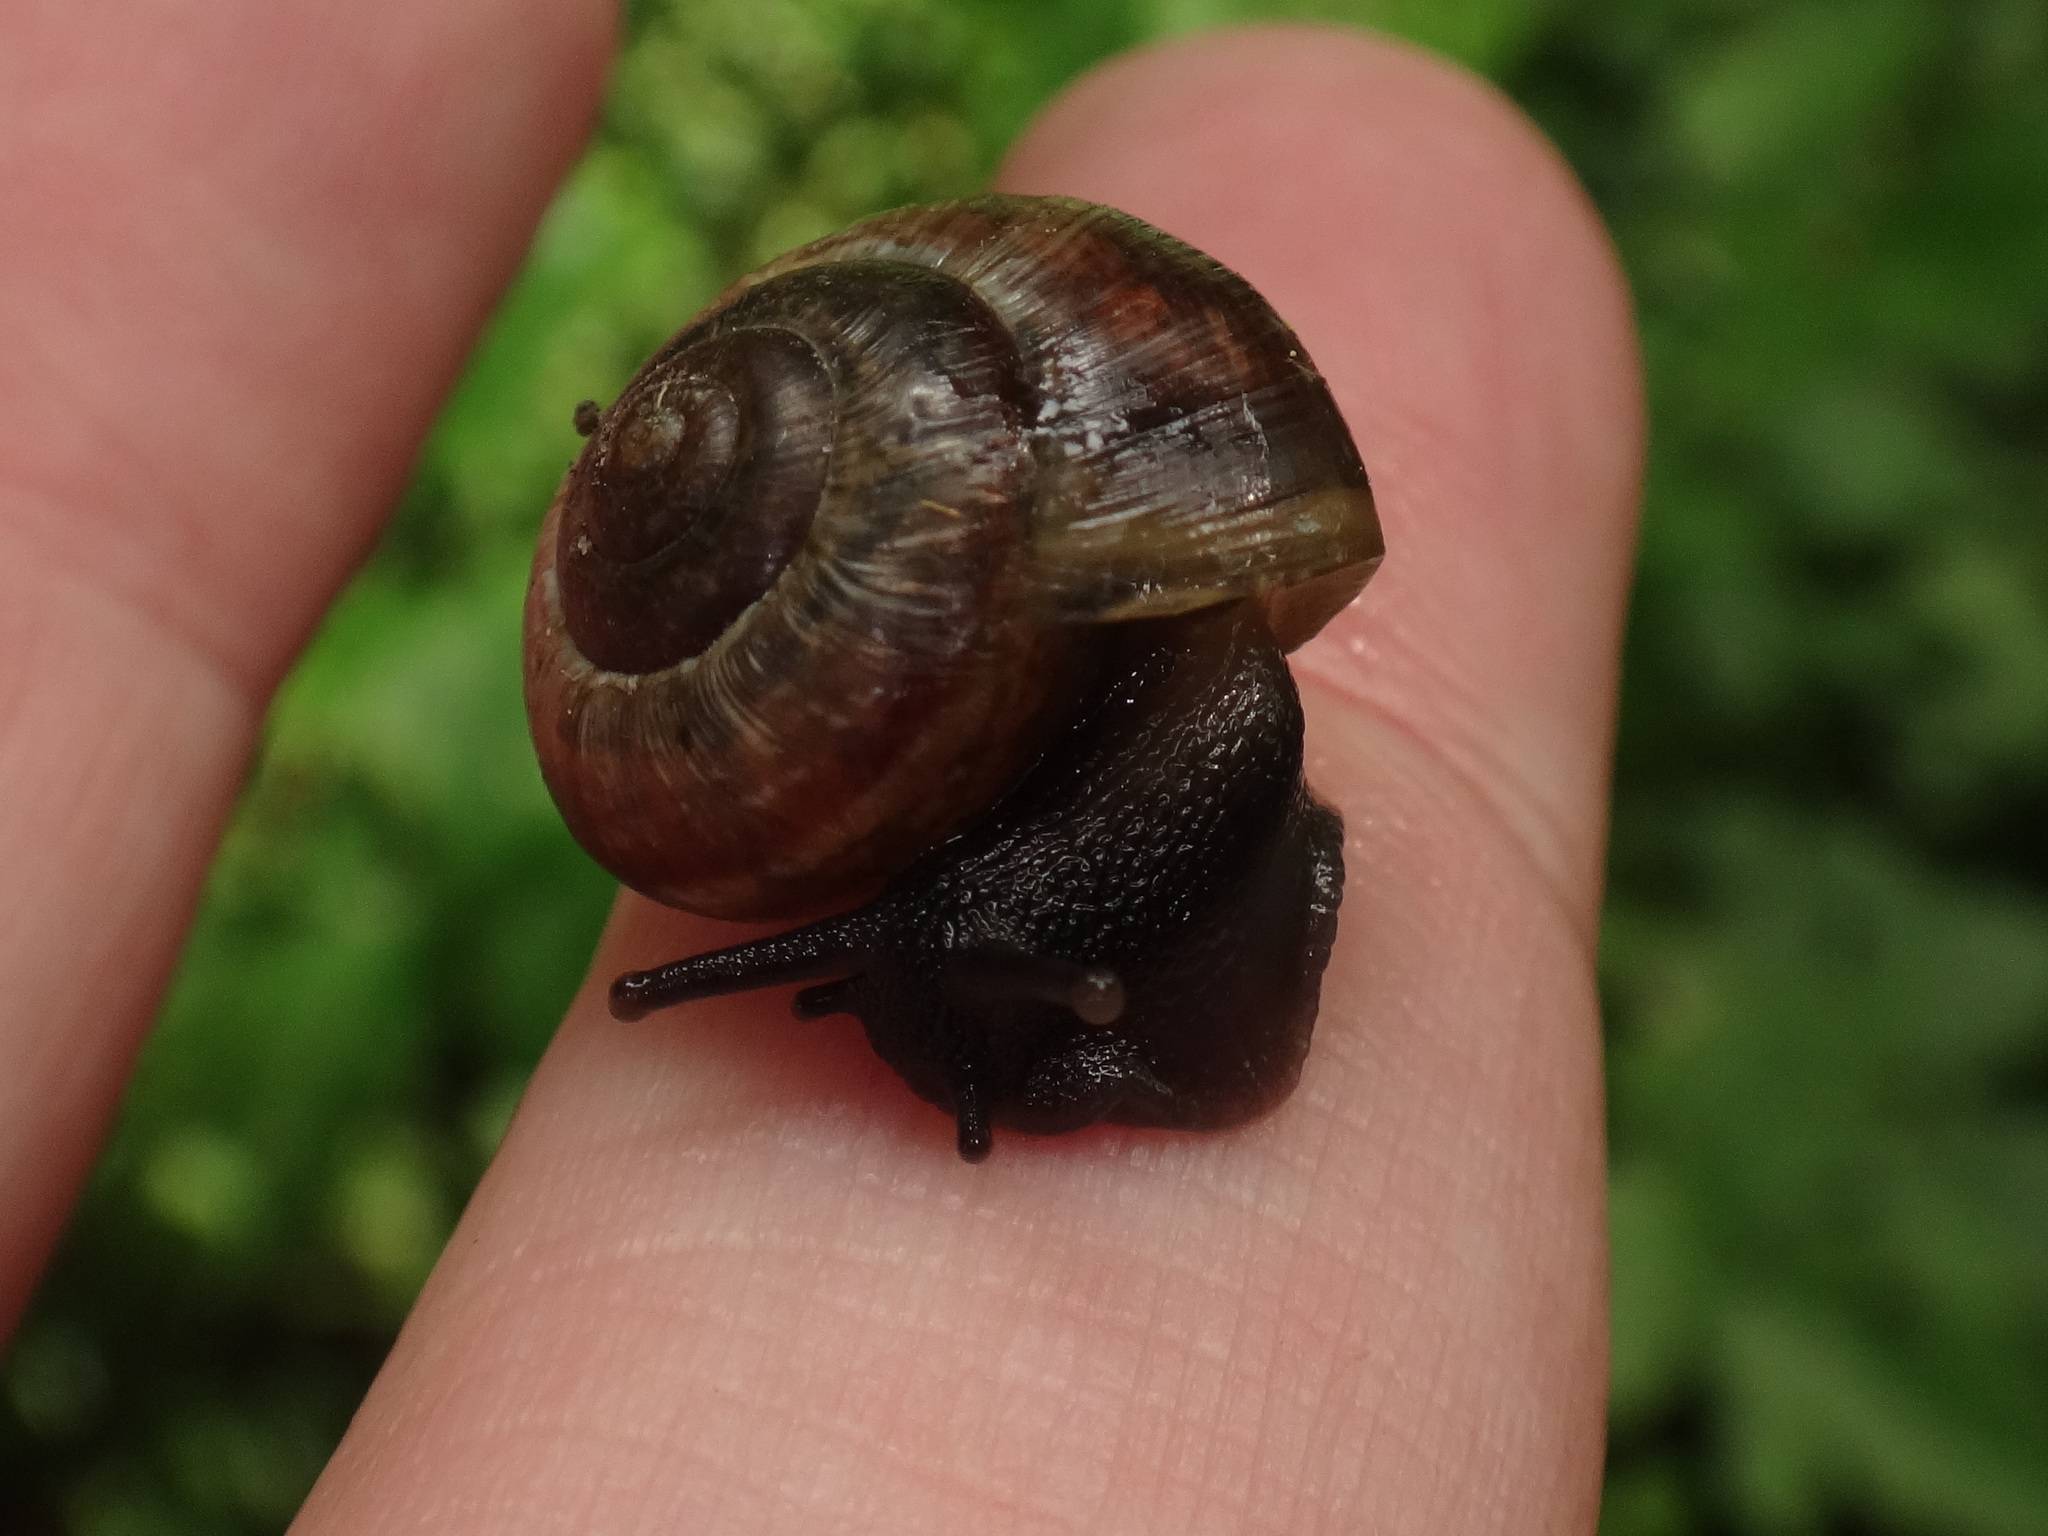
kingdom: Animalia
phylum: Mollusca
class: Gastropoda
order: Stylommatophora
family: Helicidae
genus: Arianta
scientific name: Arianta arbustorum
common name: Copse snail
